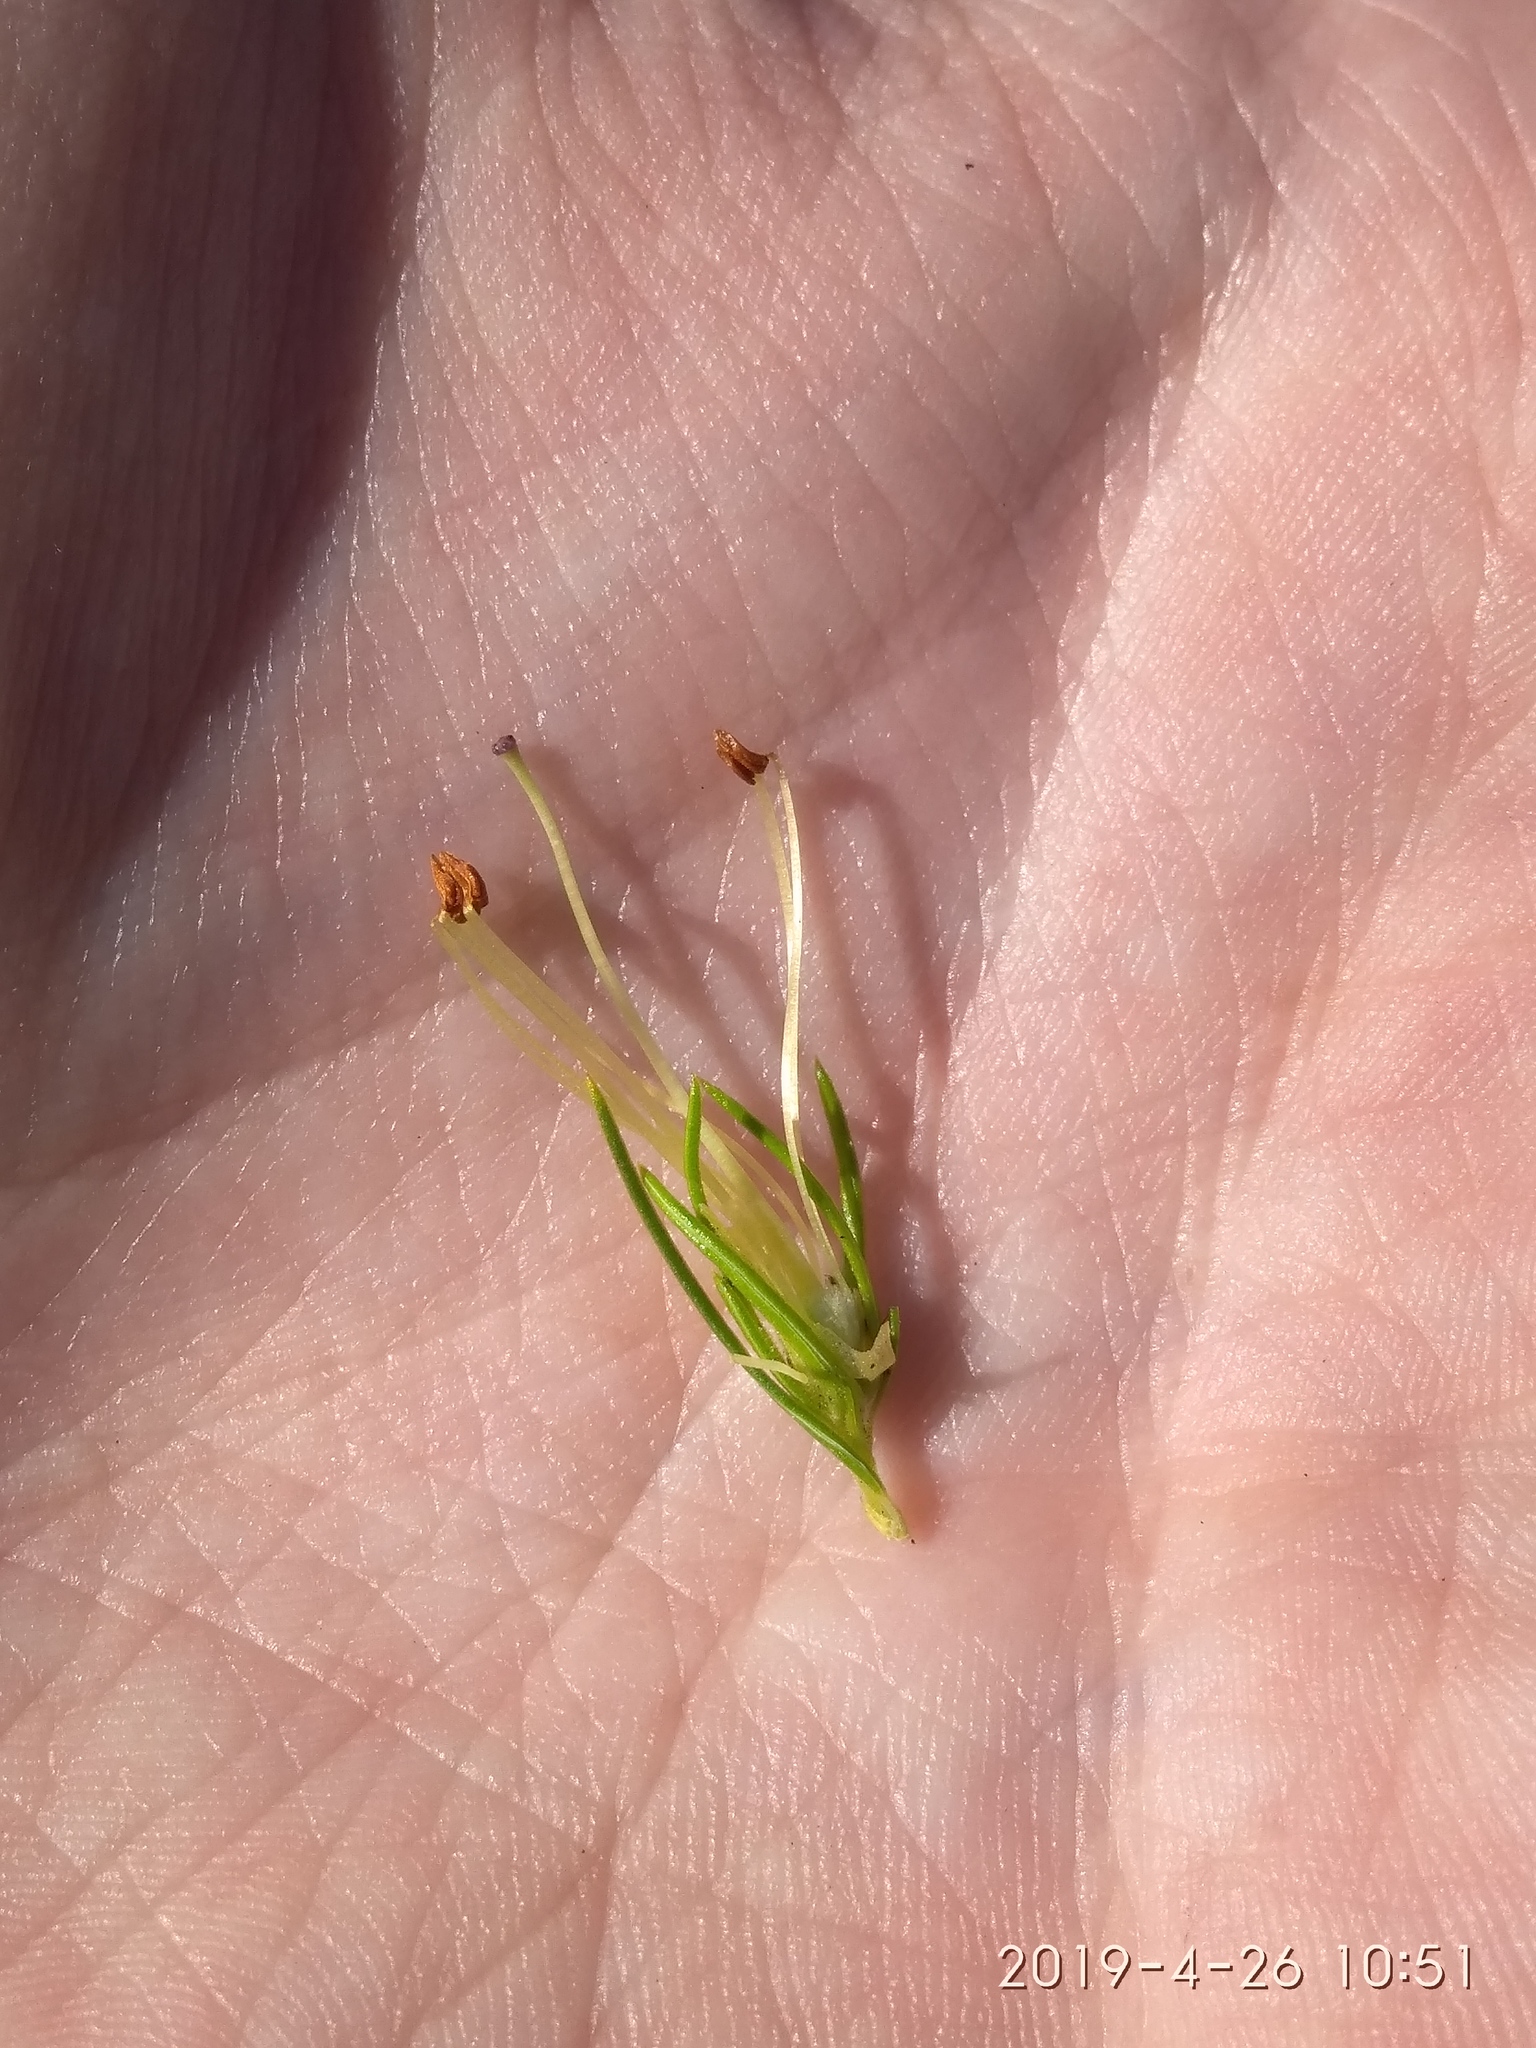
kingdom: Plantae
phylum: Tracheophyta
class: Magnoliopsida
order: Ericales
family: Ericaceae
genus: Erica
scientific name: Erica viscaria
